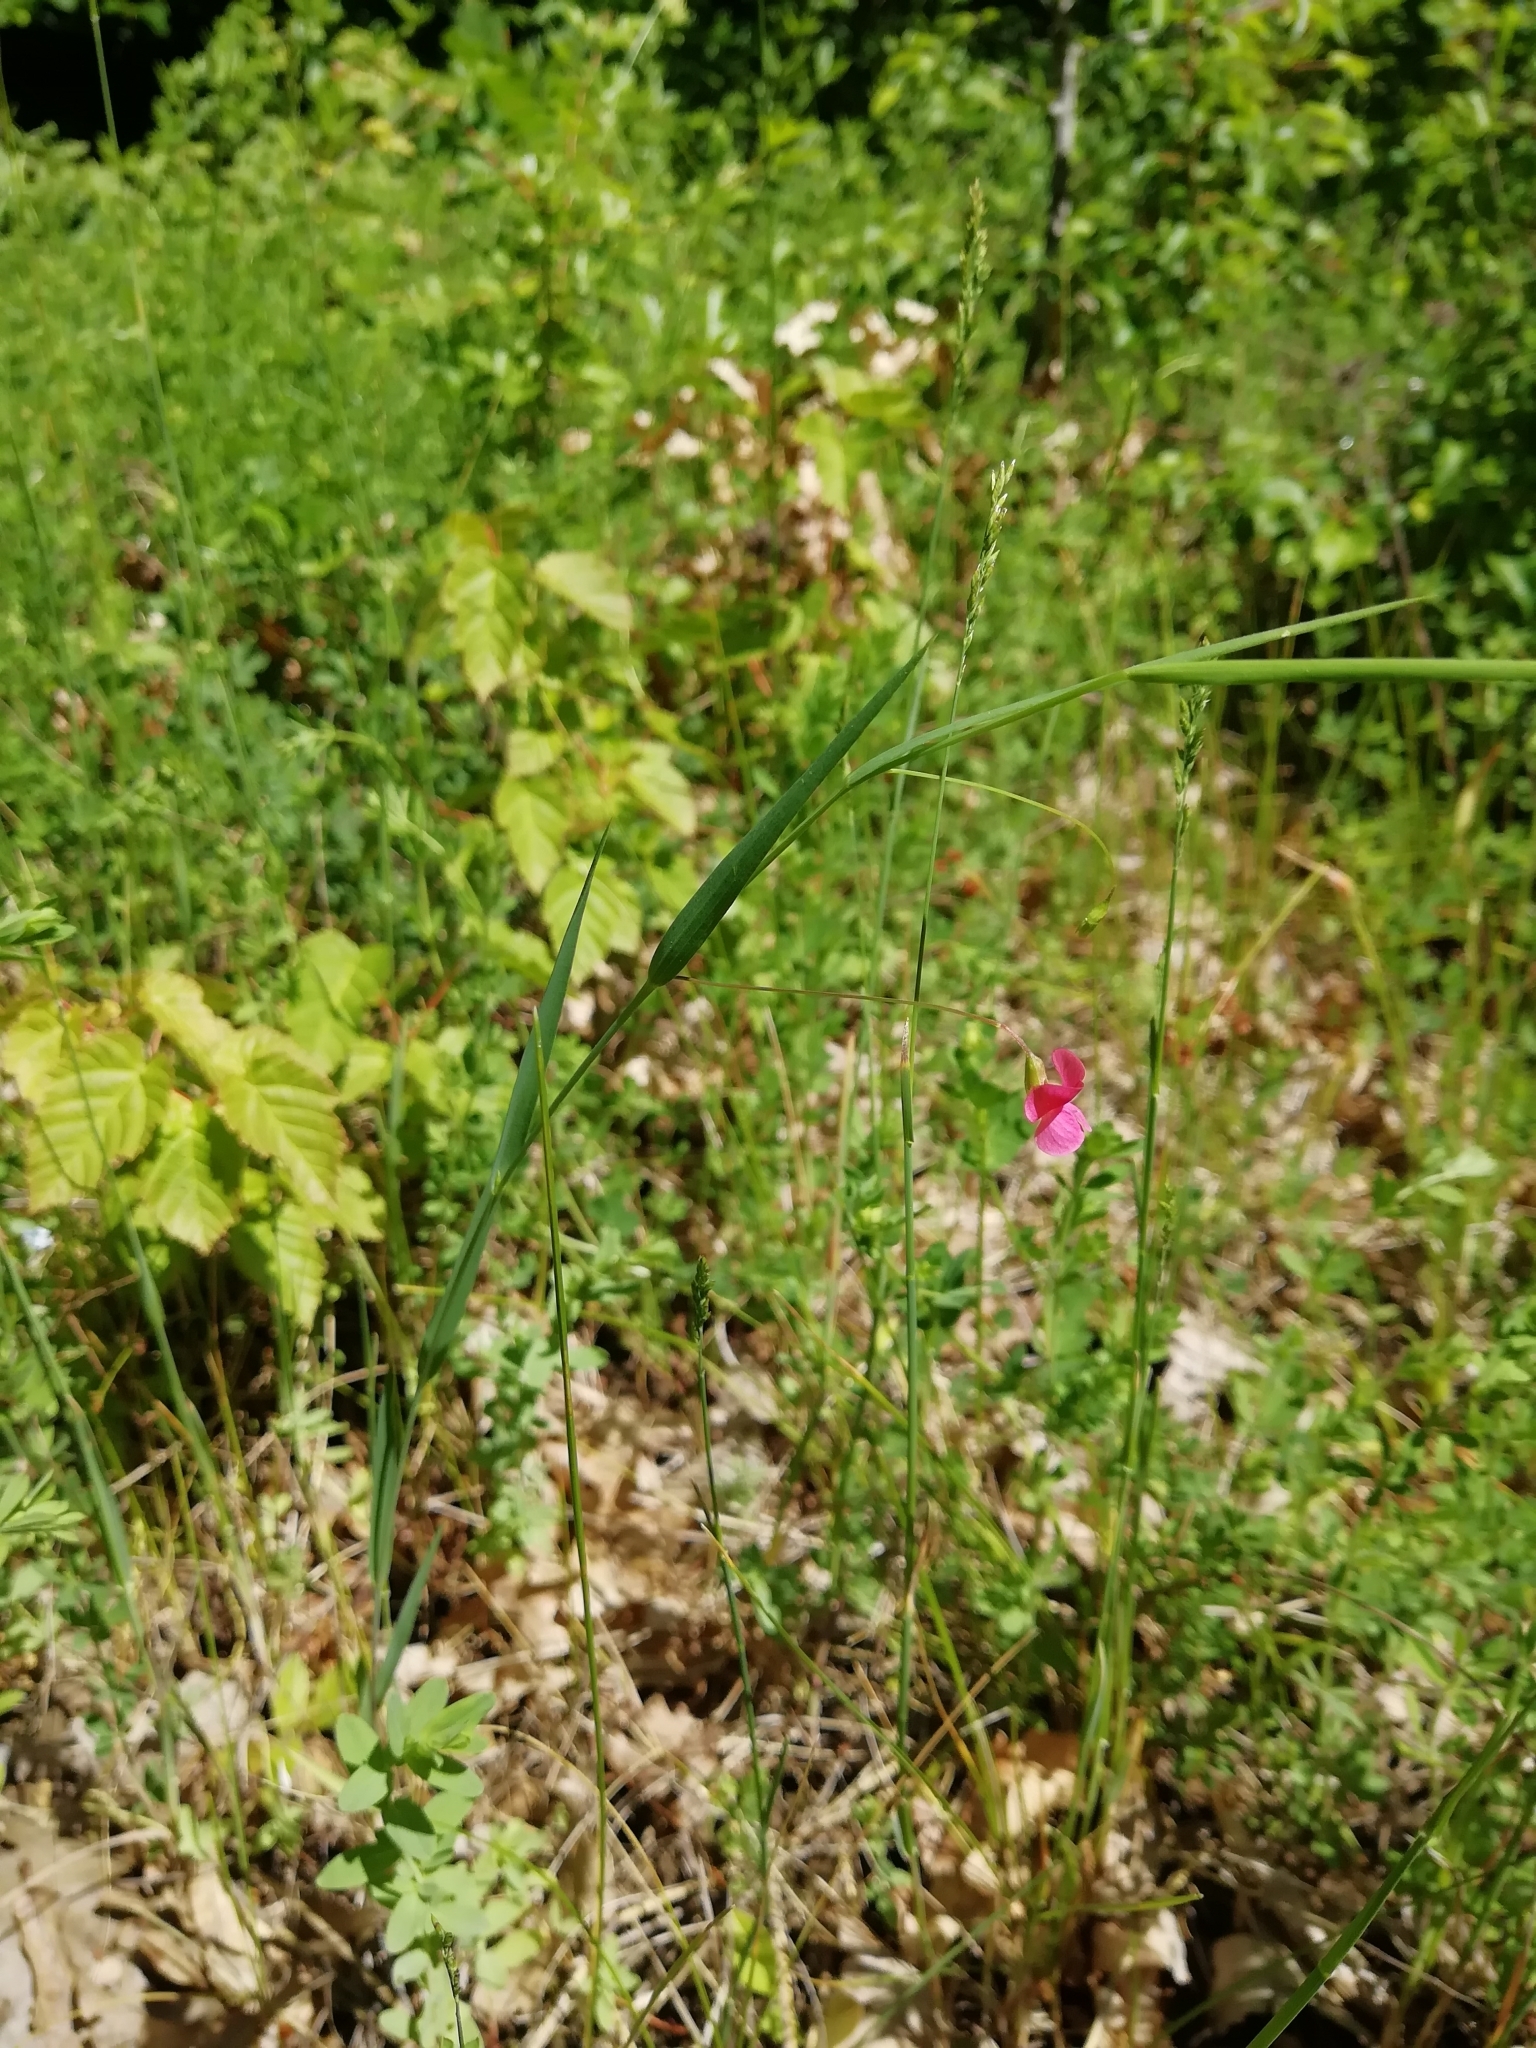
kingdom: Plantae
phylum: Tracheophyta
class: Magnoliopsida
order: Fabales
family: Fabaceae
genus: Lathyrus
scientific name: Lathyrus nissolia
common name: Grass vetchling
